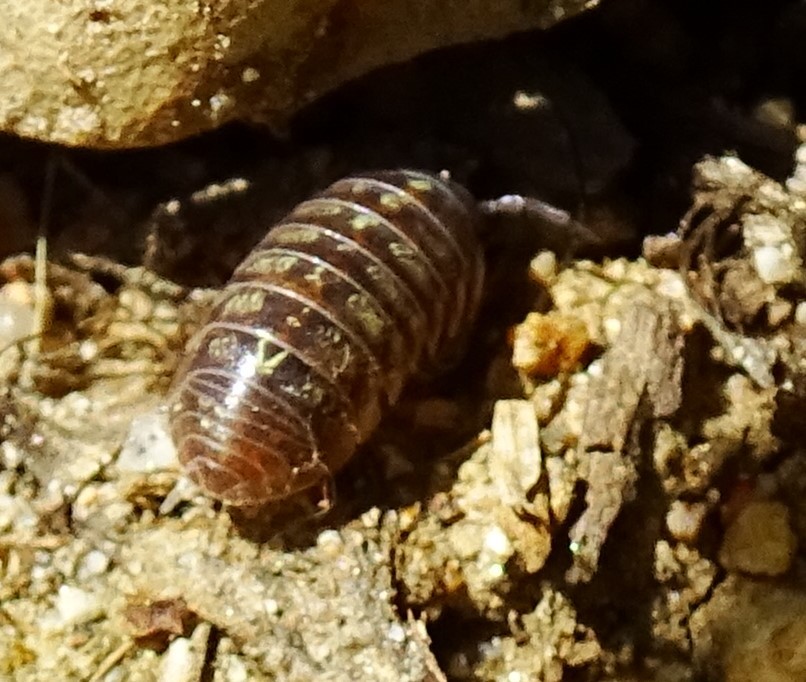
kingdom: Animalia
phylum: Arthropoda
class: Malacostraca
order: Isopoda
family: Armadillidiidae
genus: Armadillidium
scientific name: Armadillidium vulgare
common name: Common pill woodlouse
